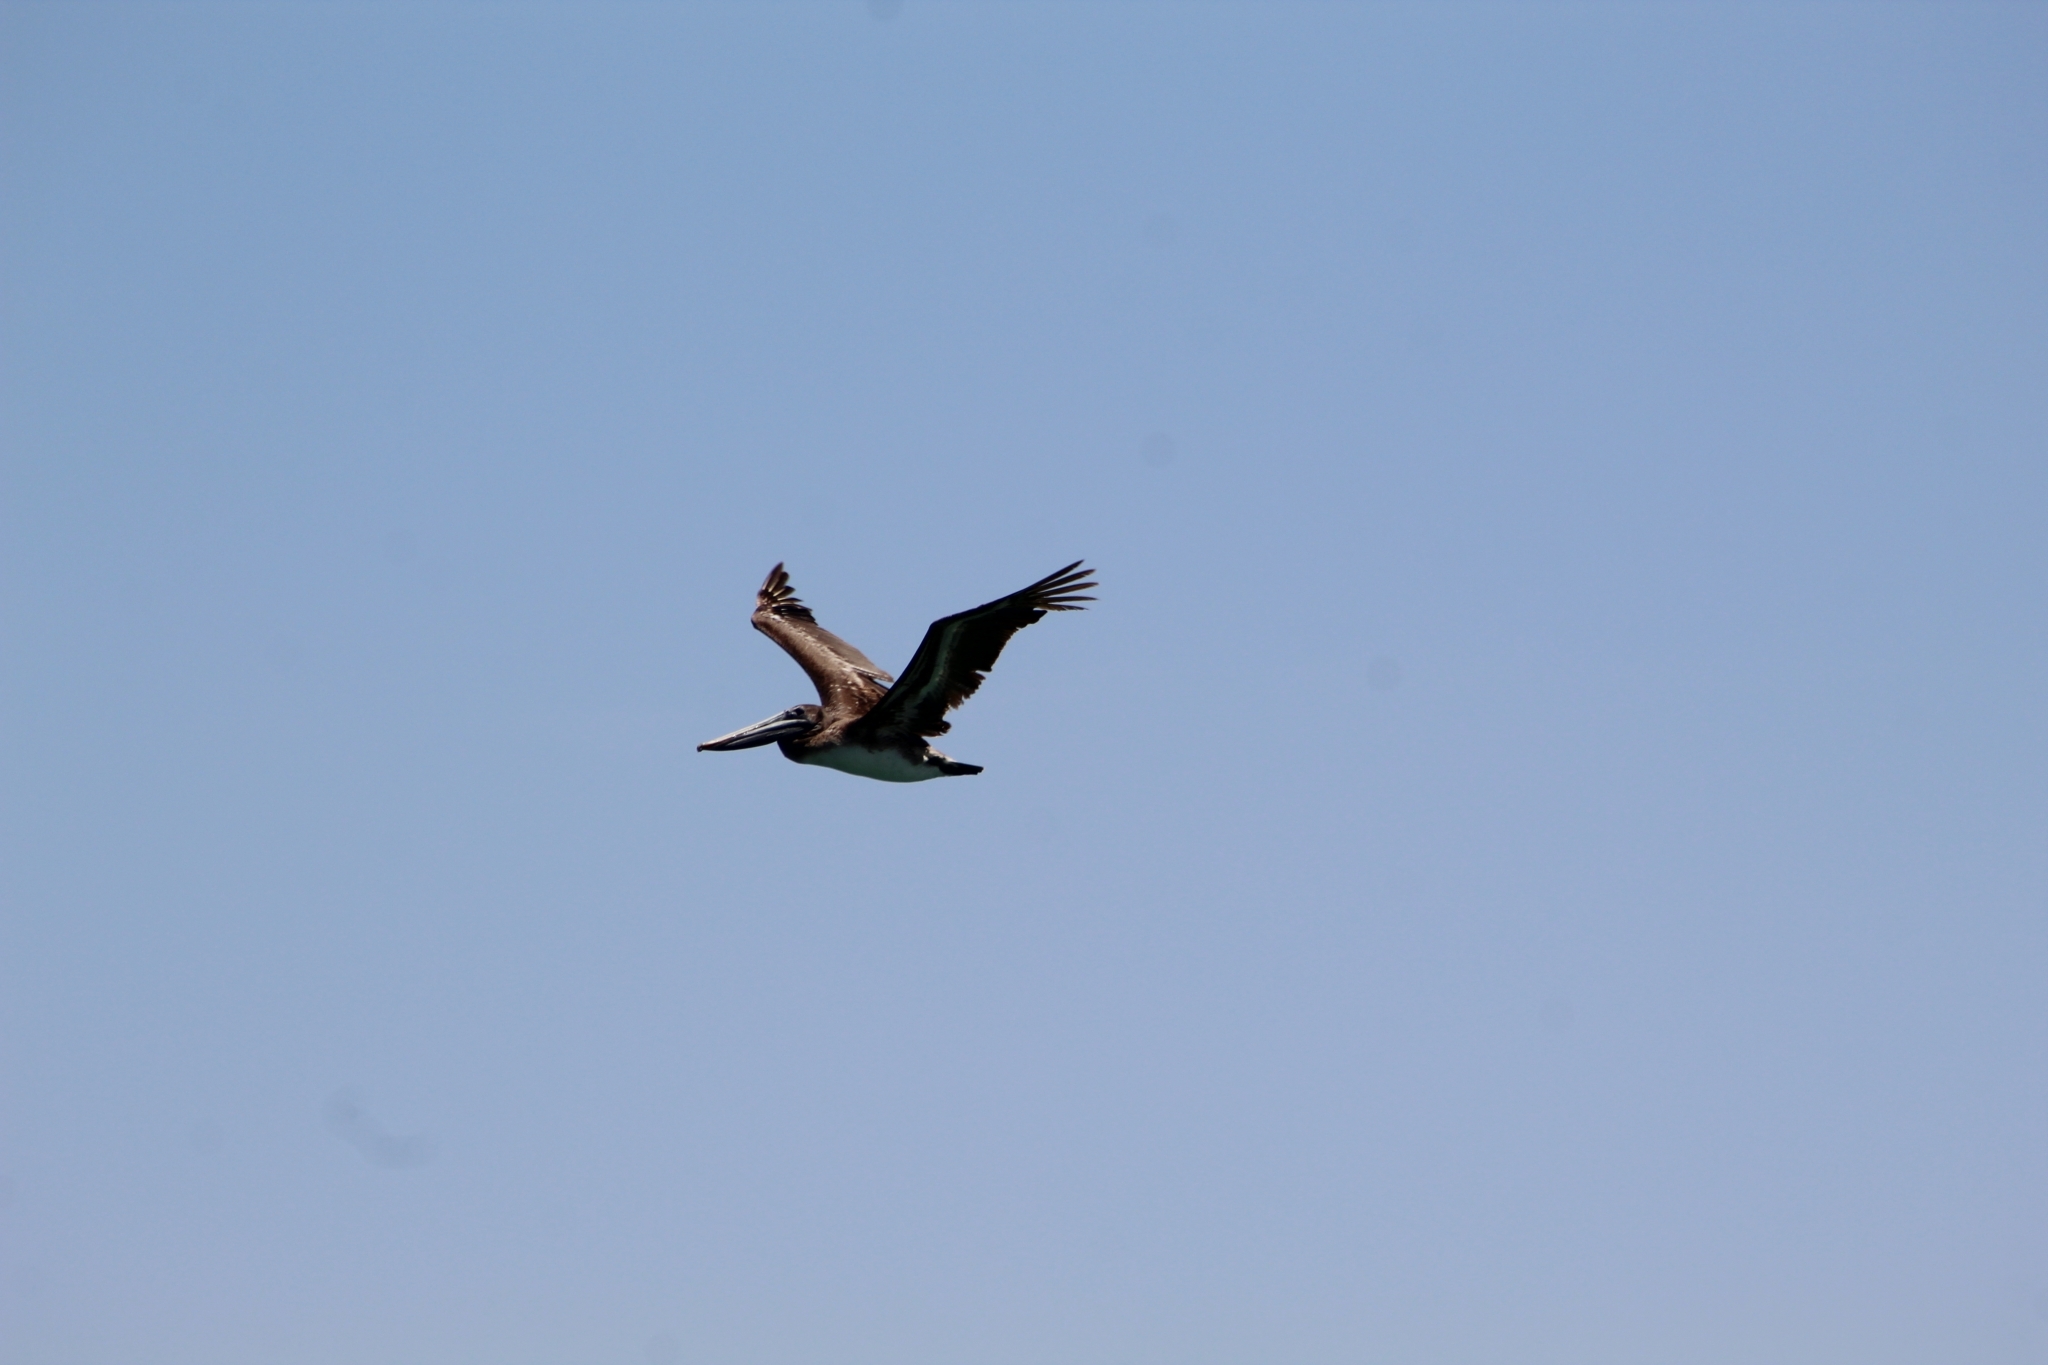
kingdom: Animalia
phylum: Chordata
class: Aves
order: Pelecaniformes
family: Pelecanidae
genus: Pelecanus
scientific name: Pelecanus occidentalis
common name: Brown pelican
